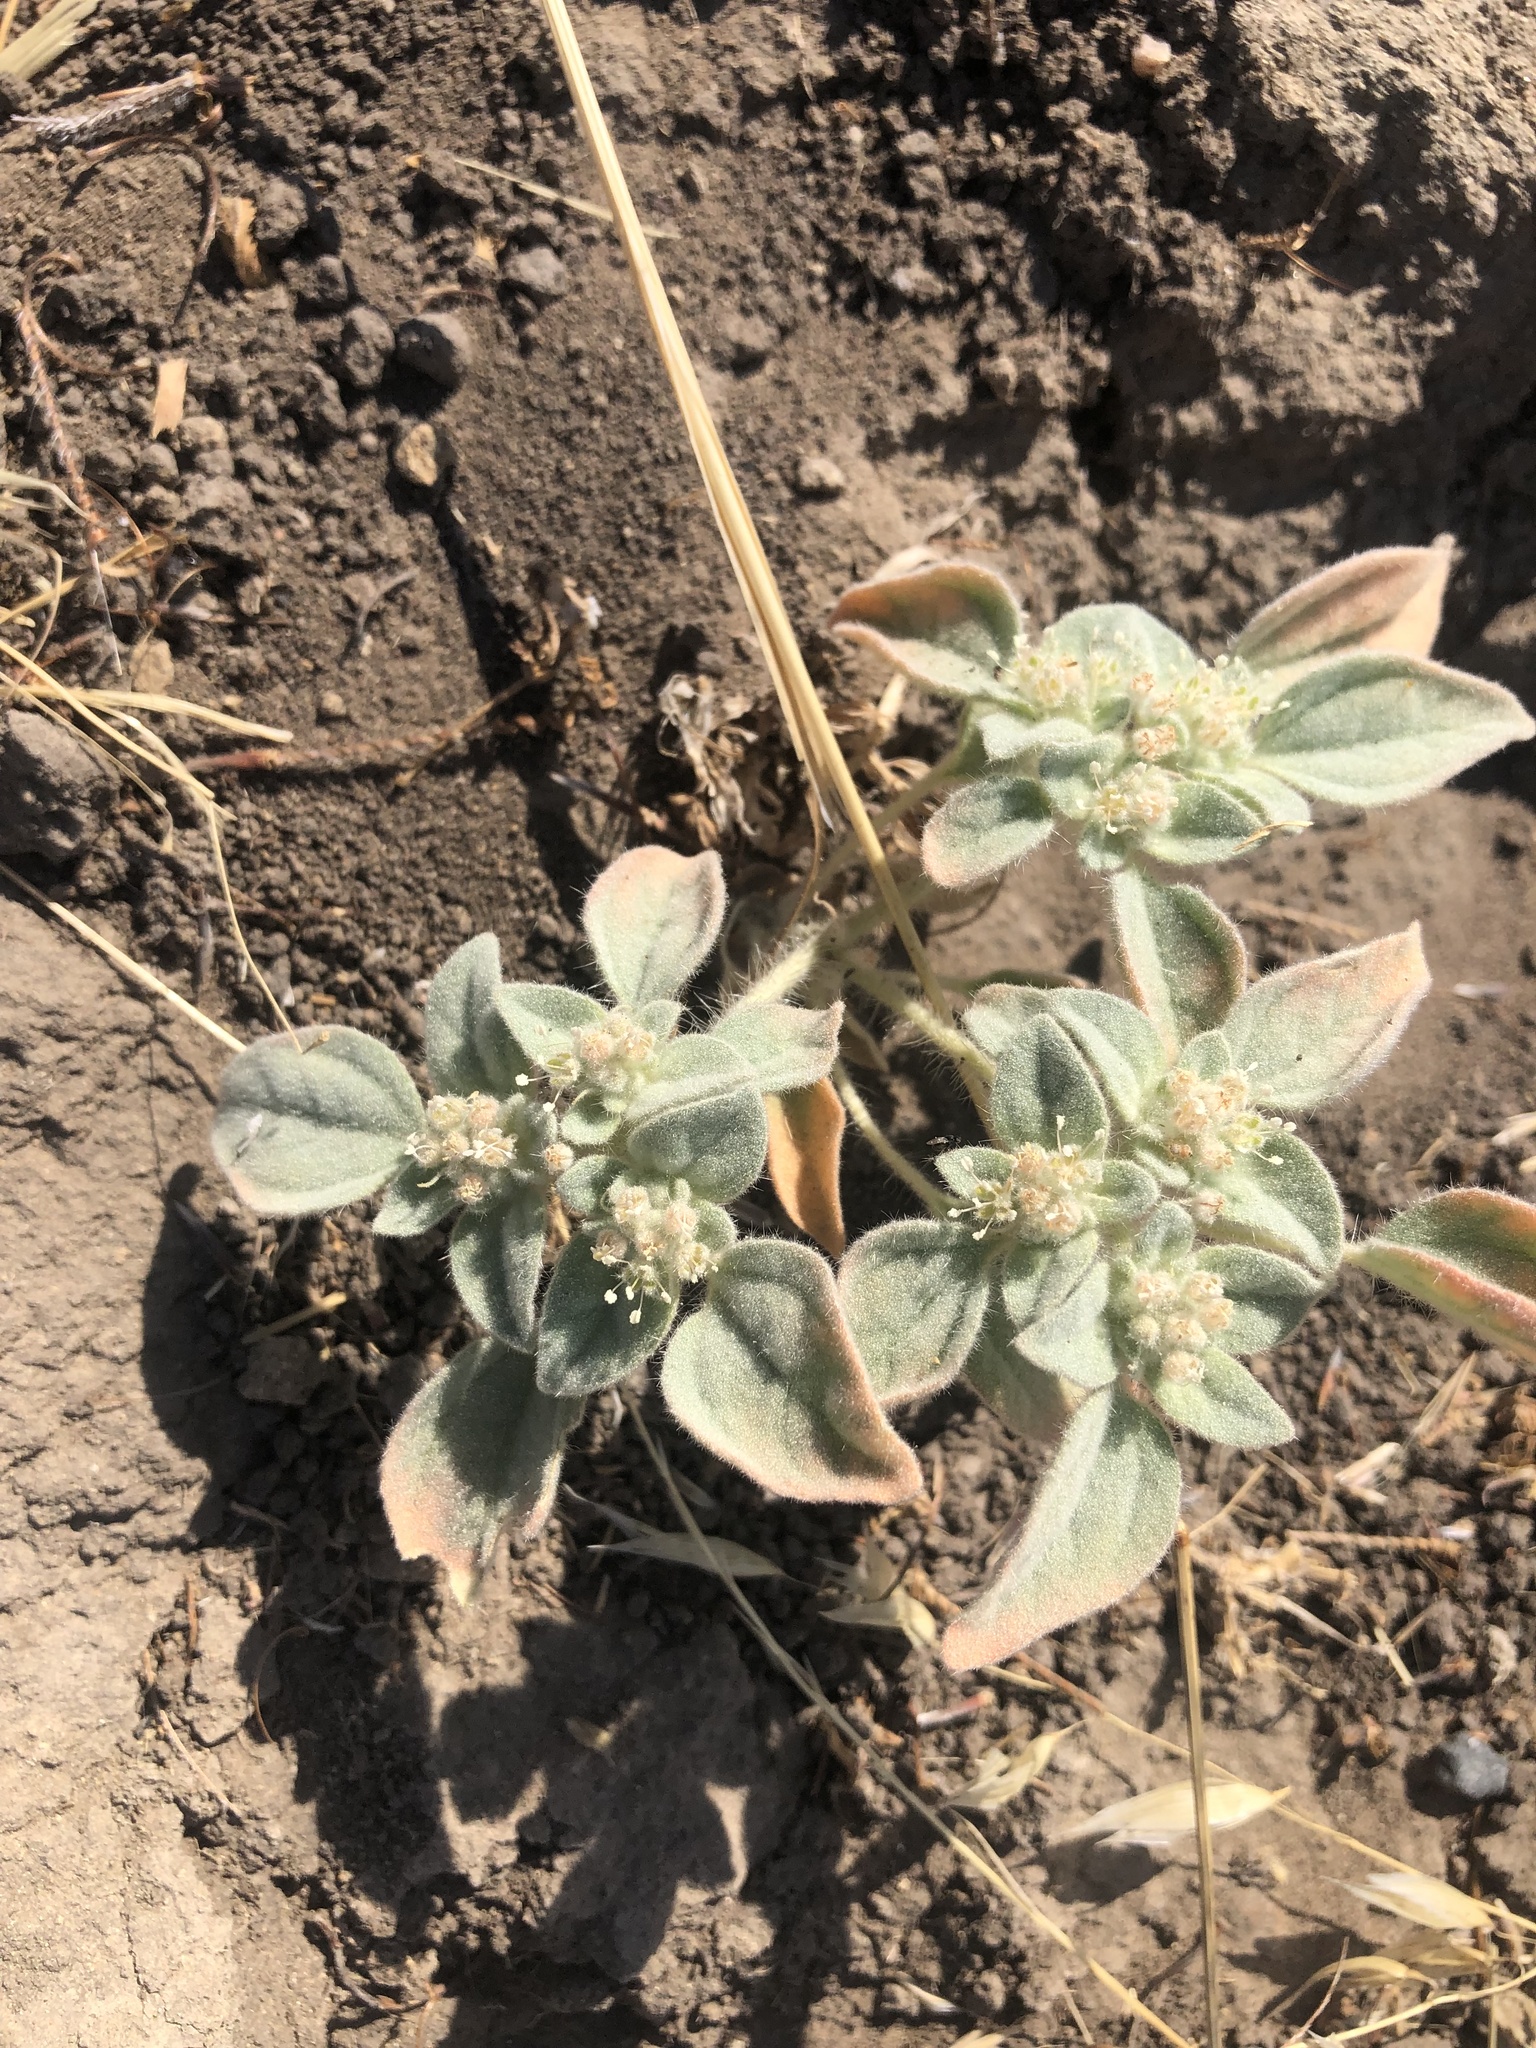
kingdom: Plantae
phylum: Tracheophyta
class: Magnoliopsida
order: Malpighiales
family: Euphorbiaceae
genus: Croton
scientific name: Croton setiger
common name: Dove weed
